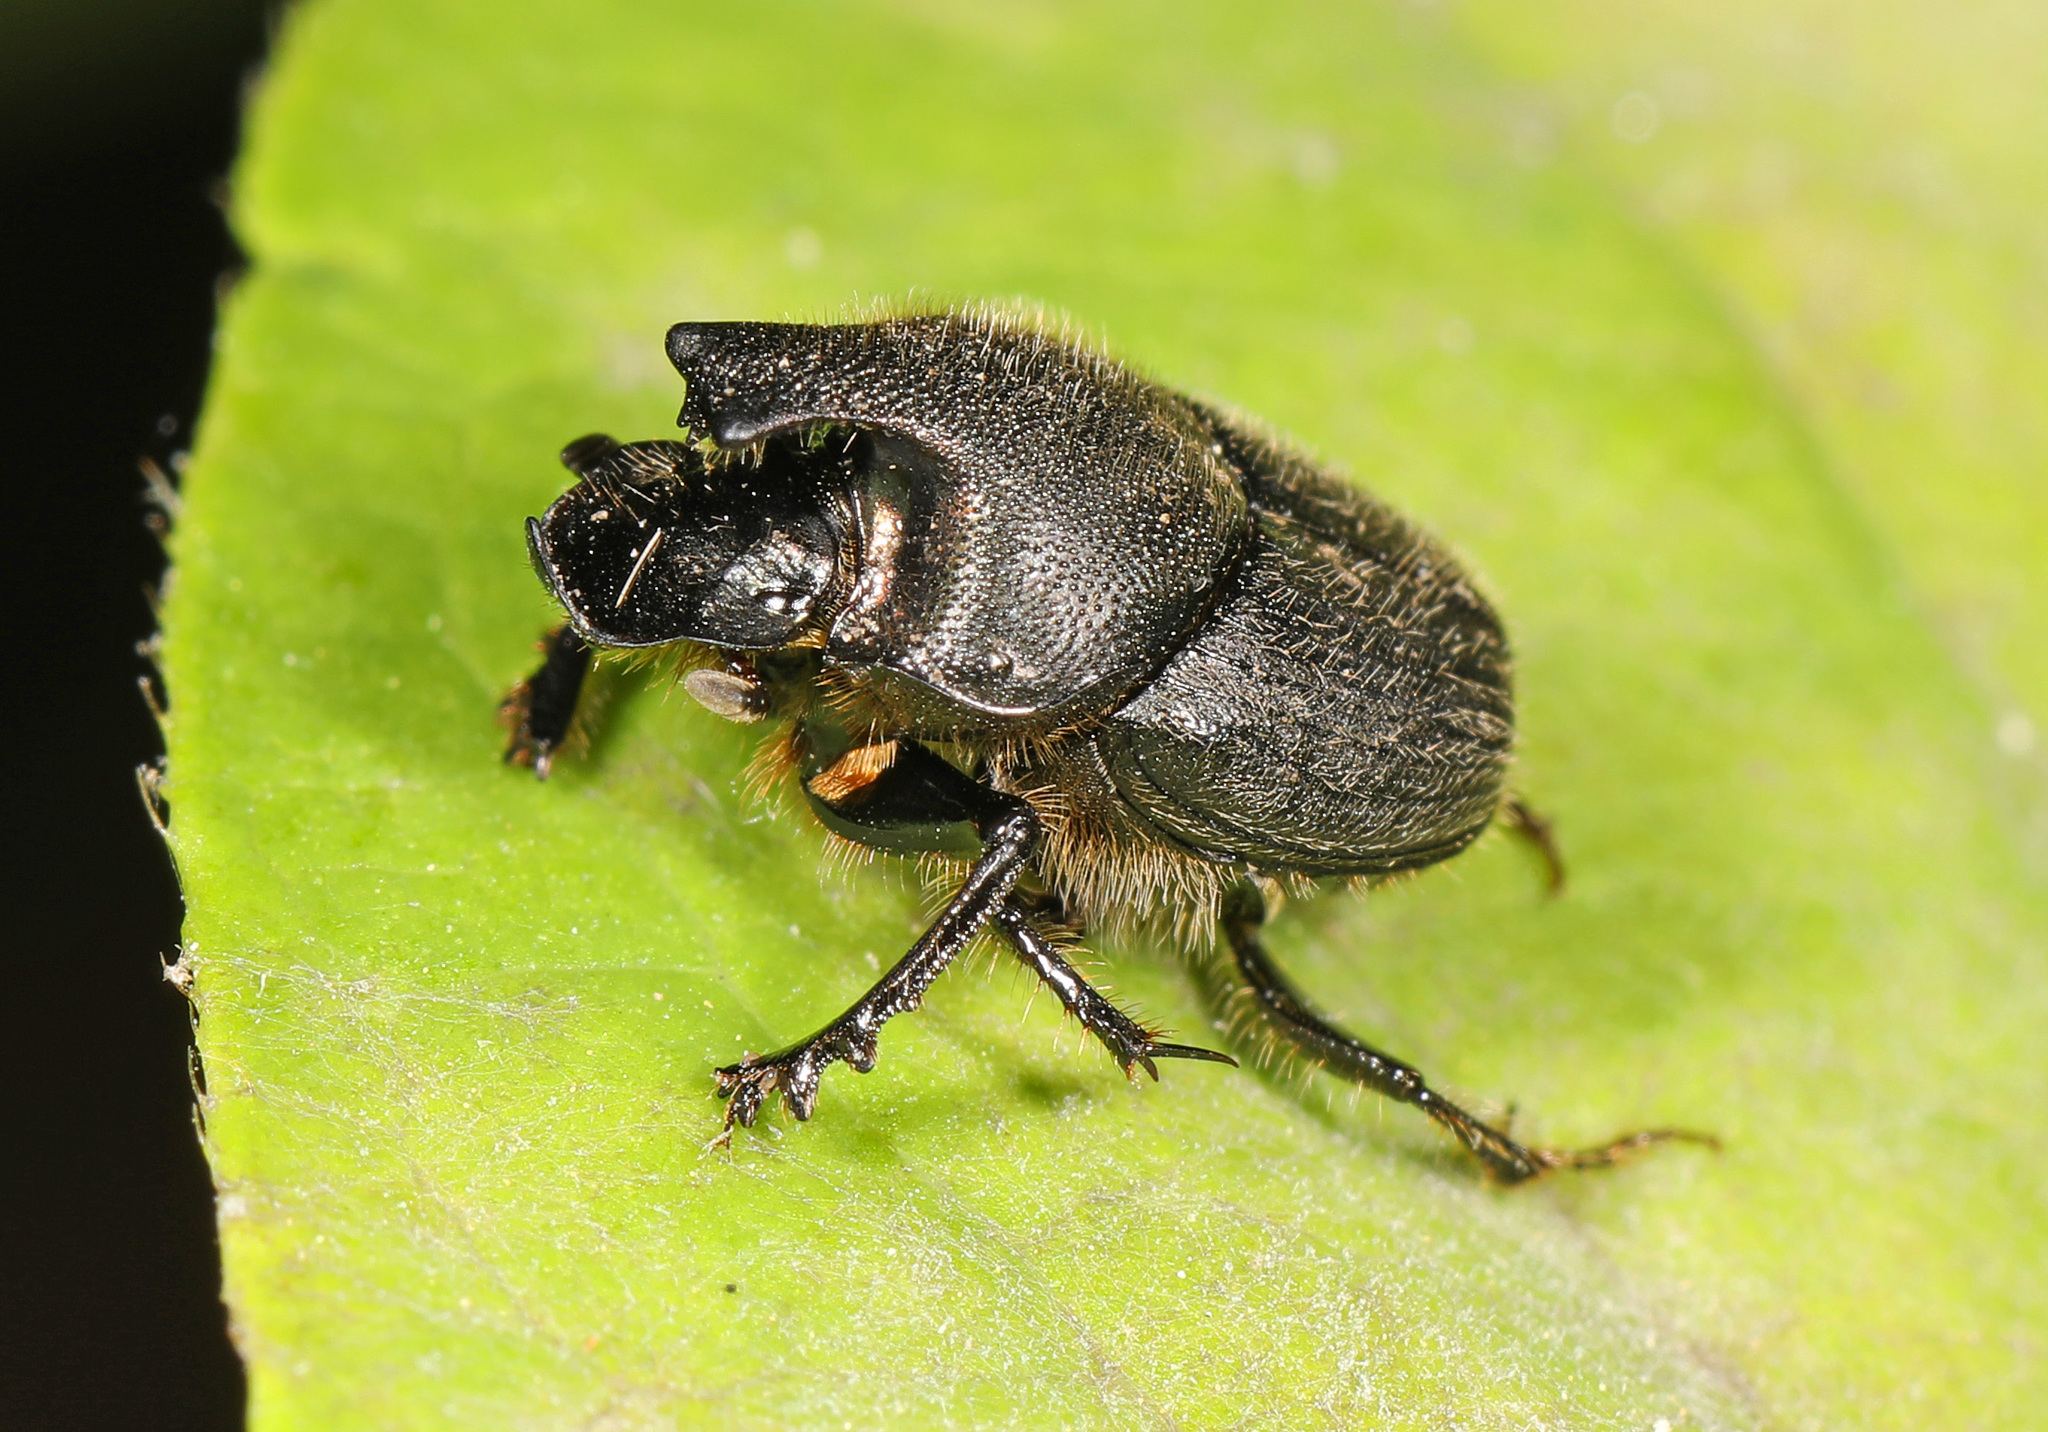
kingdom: Animalia
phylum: Arthropoda
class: Insecta
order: Coleoptera
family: Scarabaeidae
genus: Onthophagus
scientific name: Onthophagus hecate
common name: Scooped scarab
